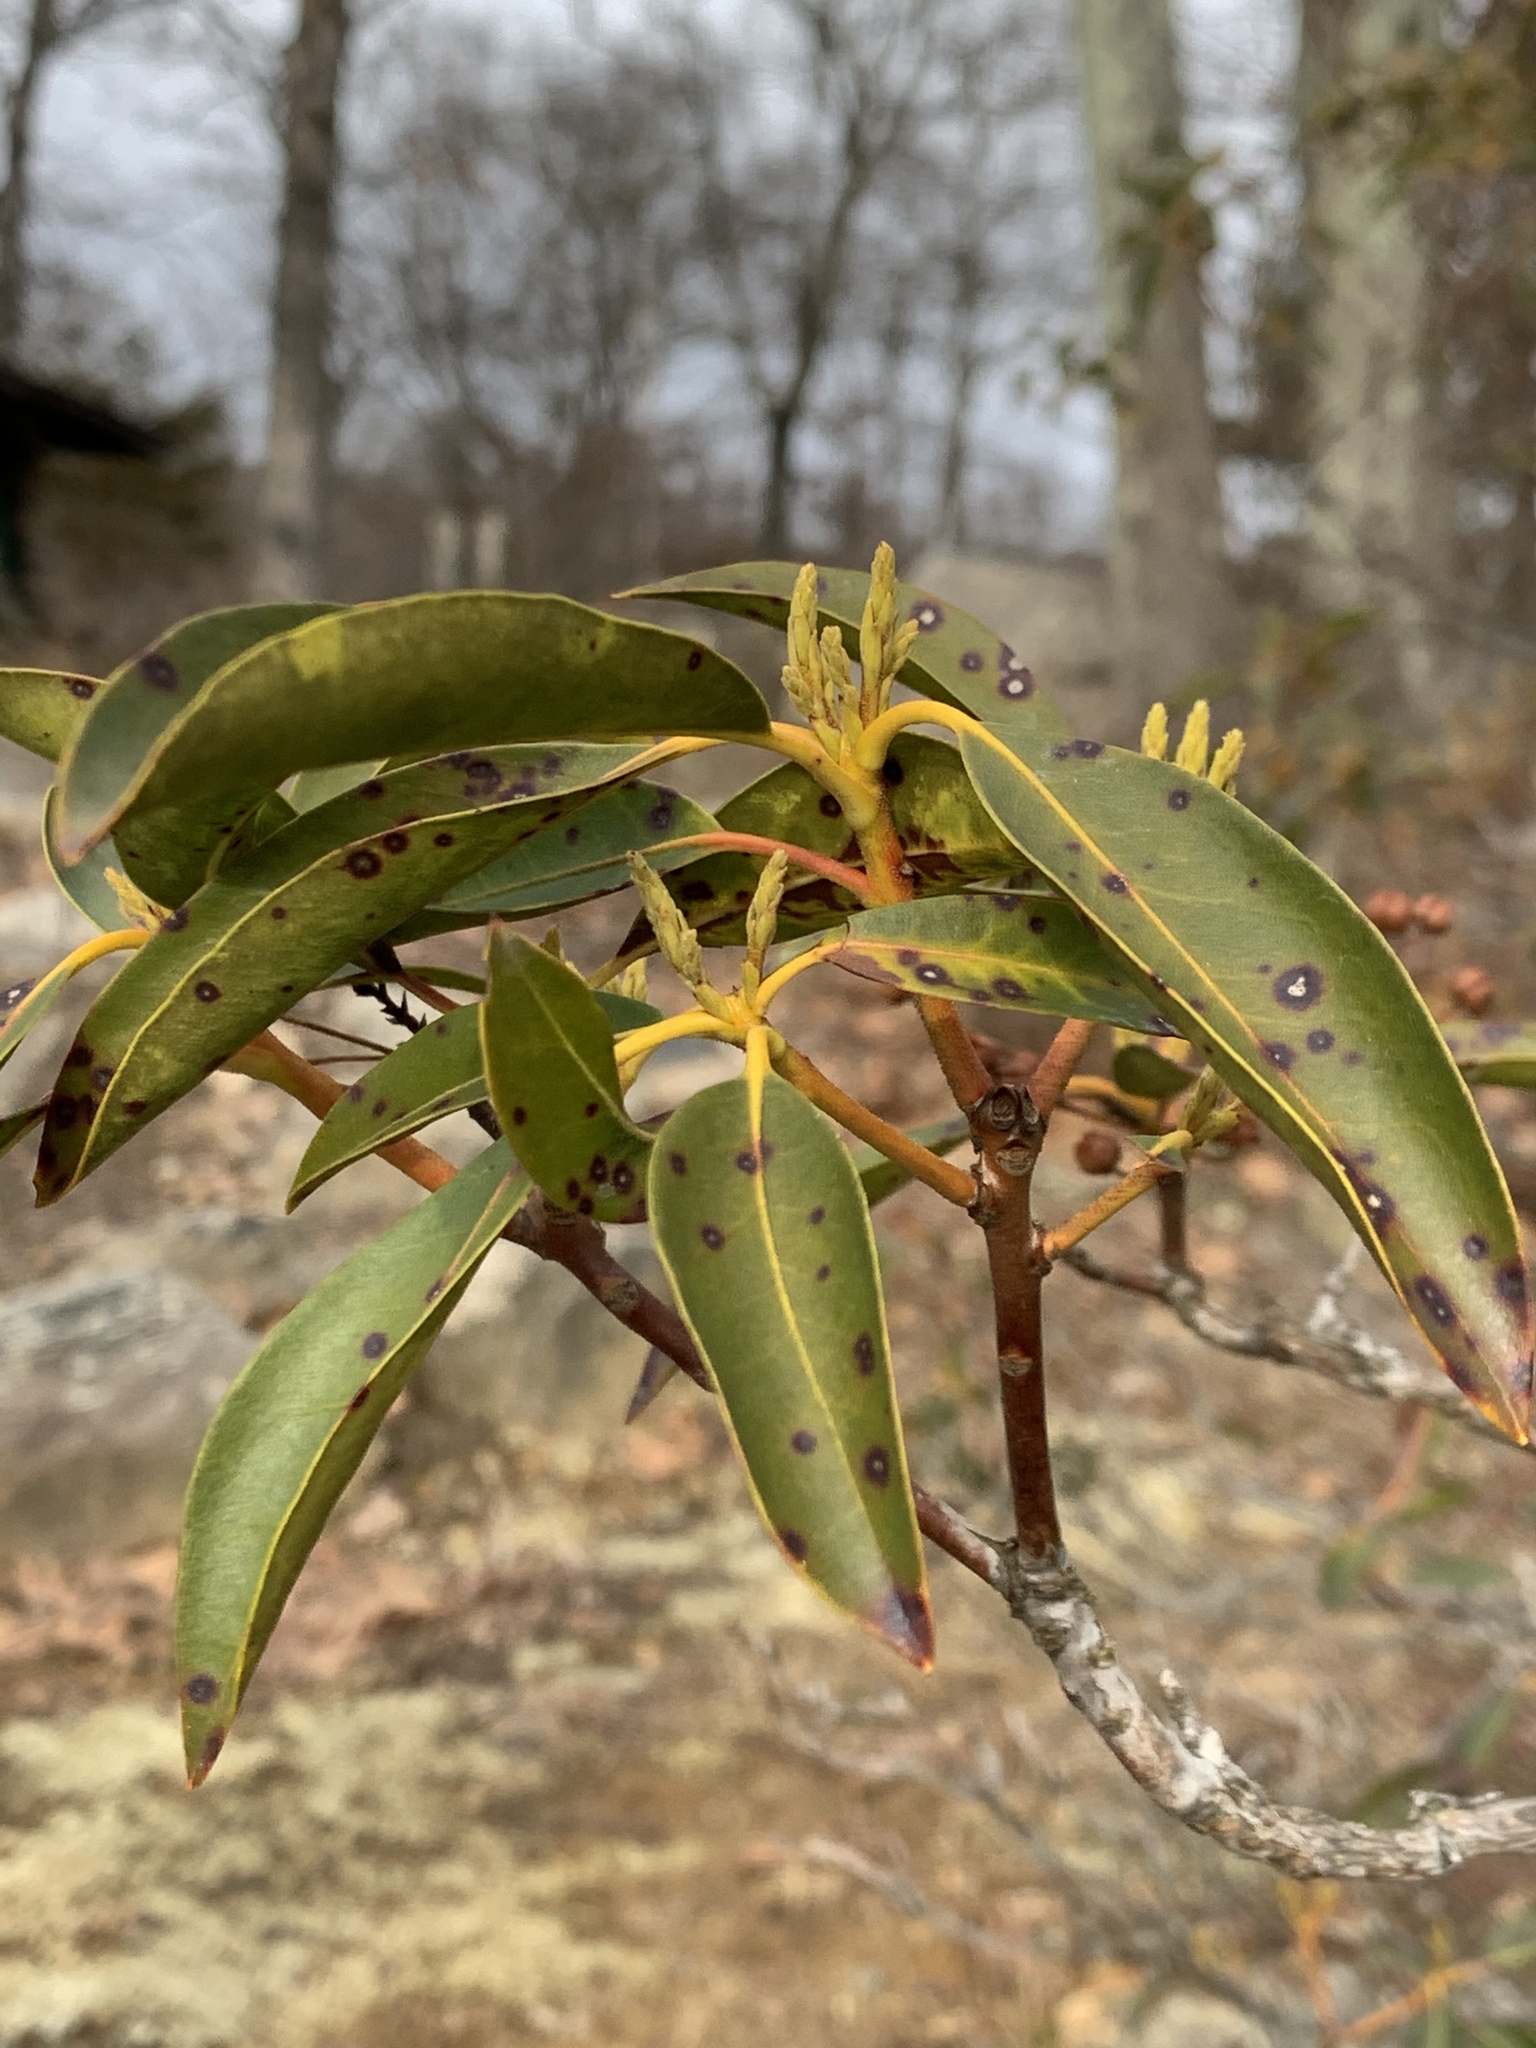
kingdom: Plantae
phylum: Tracheophyta
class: Magnoliopsida
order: Ericales
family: Ericaceae
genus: Kalmia
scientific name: Kalmia latifolia
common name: Mountain-laurel
